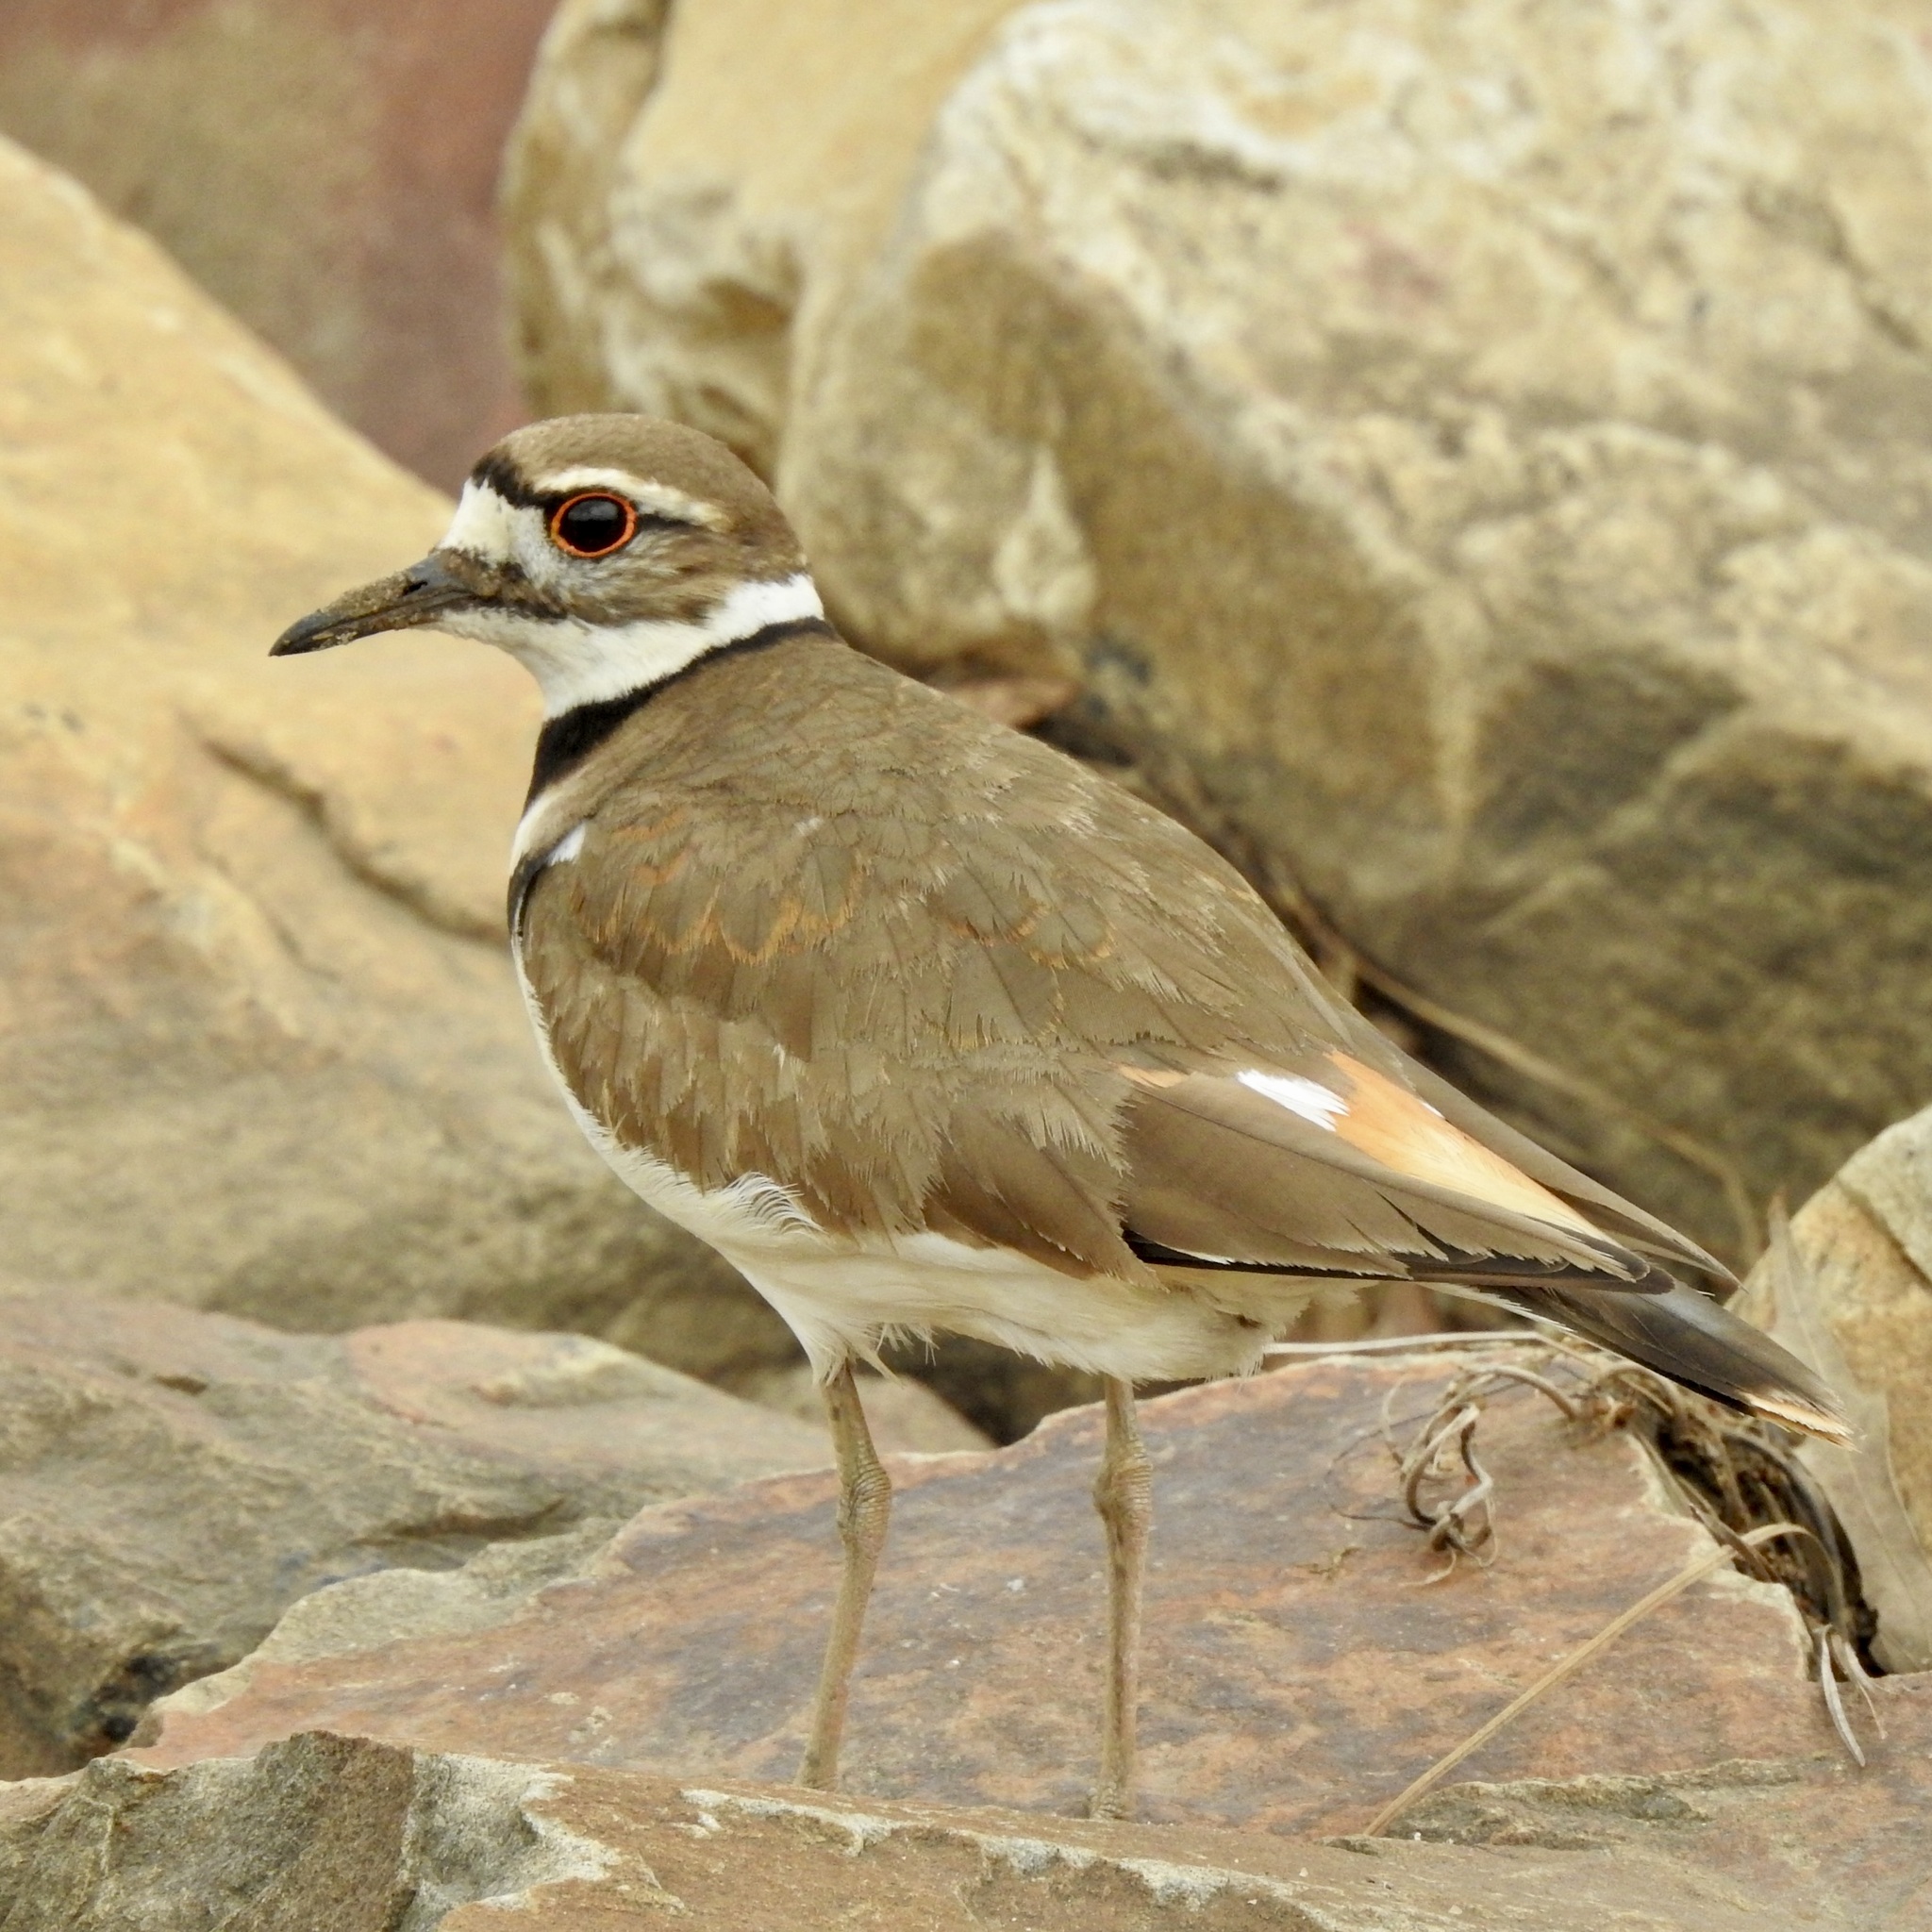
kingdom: Animalia
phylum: Chordata
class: Aves
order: Charadriiformes
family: Charadriidae
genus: Charadrius
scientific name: Charadrius vociferus
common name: Killdeer
